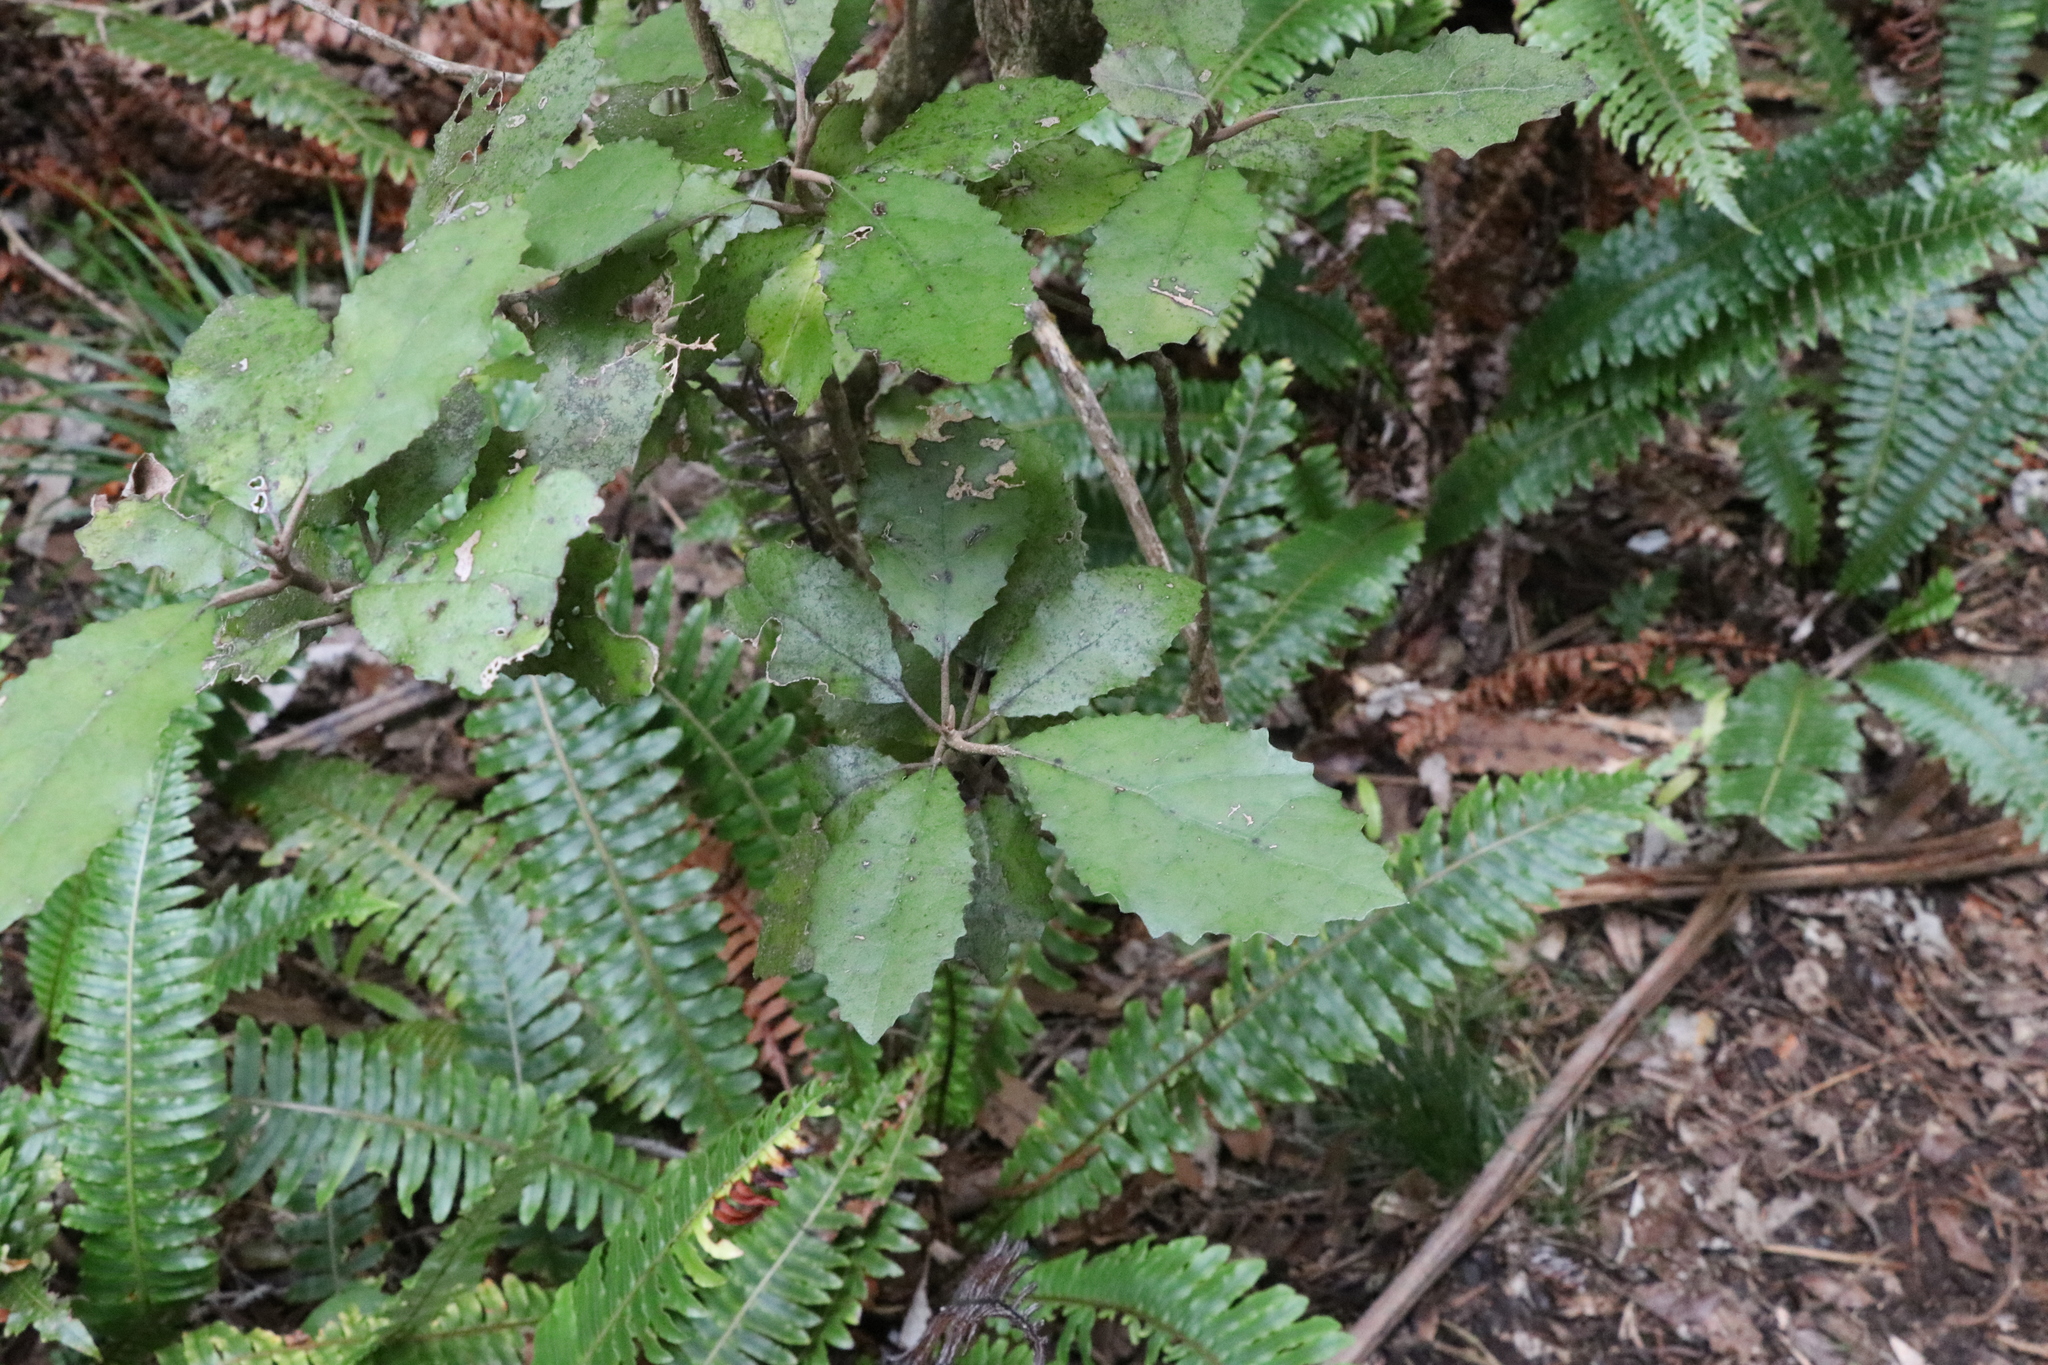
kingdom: Plantae
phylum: Tracheophyta
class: Magnoliopsida
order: Asterales
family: Asteraceae
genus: Olearia
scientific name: Olearia rani
